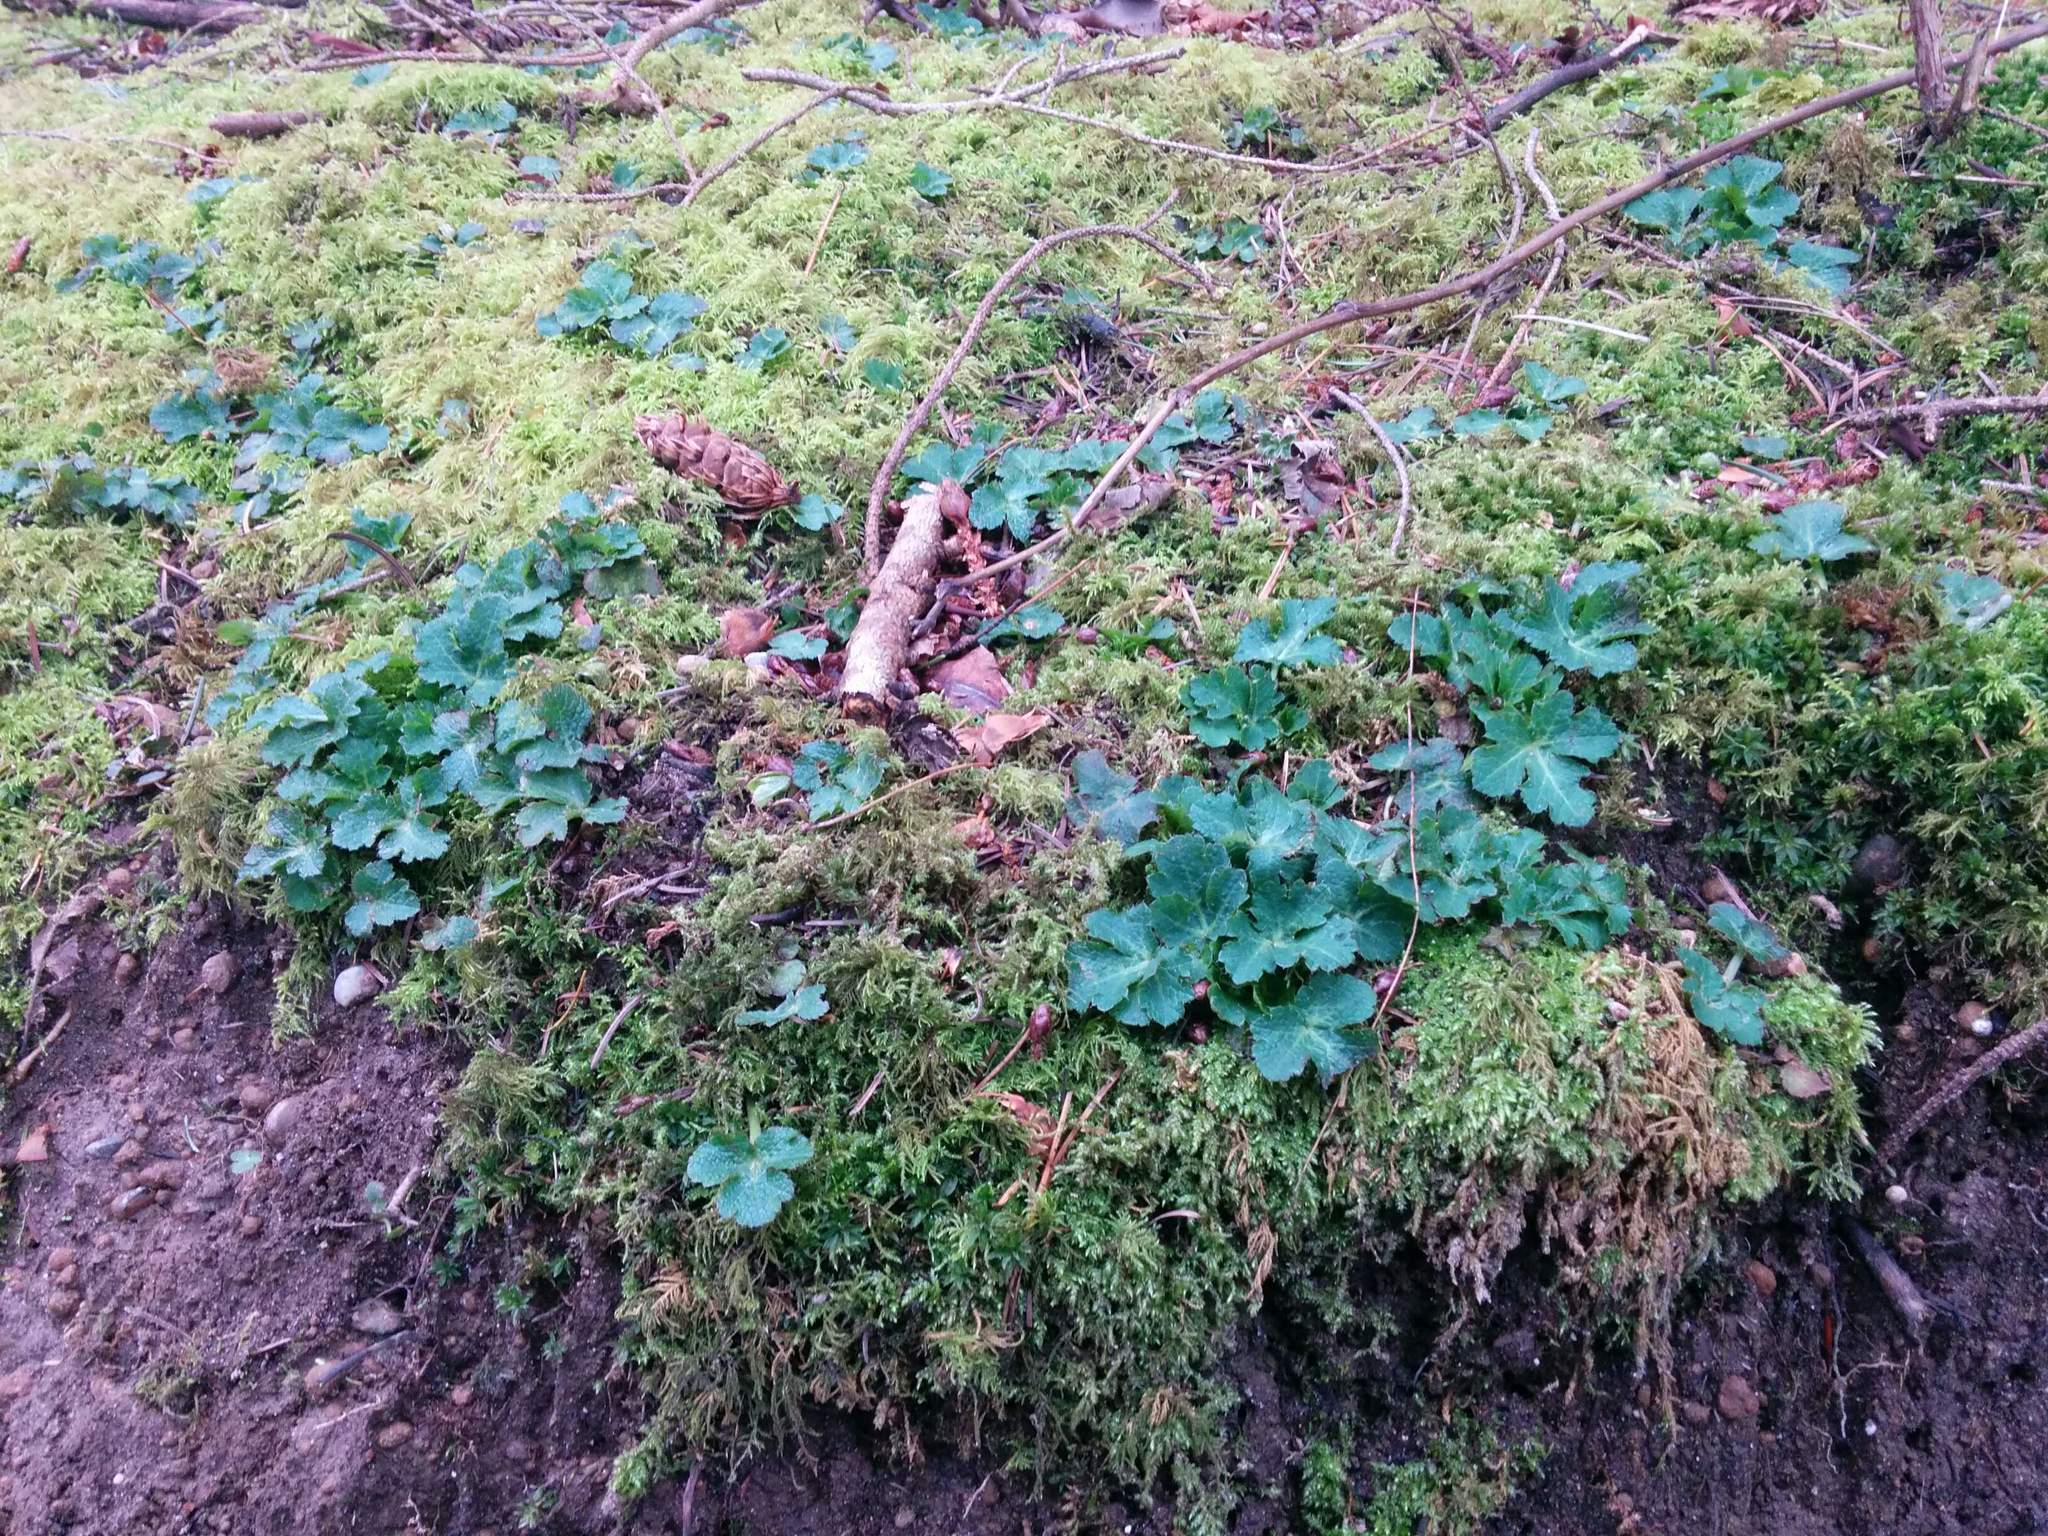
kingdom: Plantae
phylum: Tracheophyta
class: Magnoliopsida
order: Apiales
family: Apiaceae
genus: Sanicula
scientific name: Sanicula crassicaulis
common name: Western snakeroot
